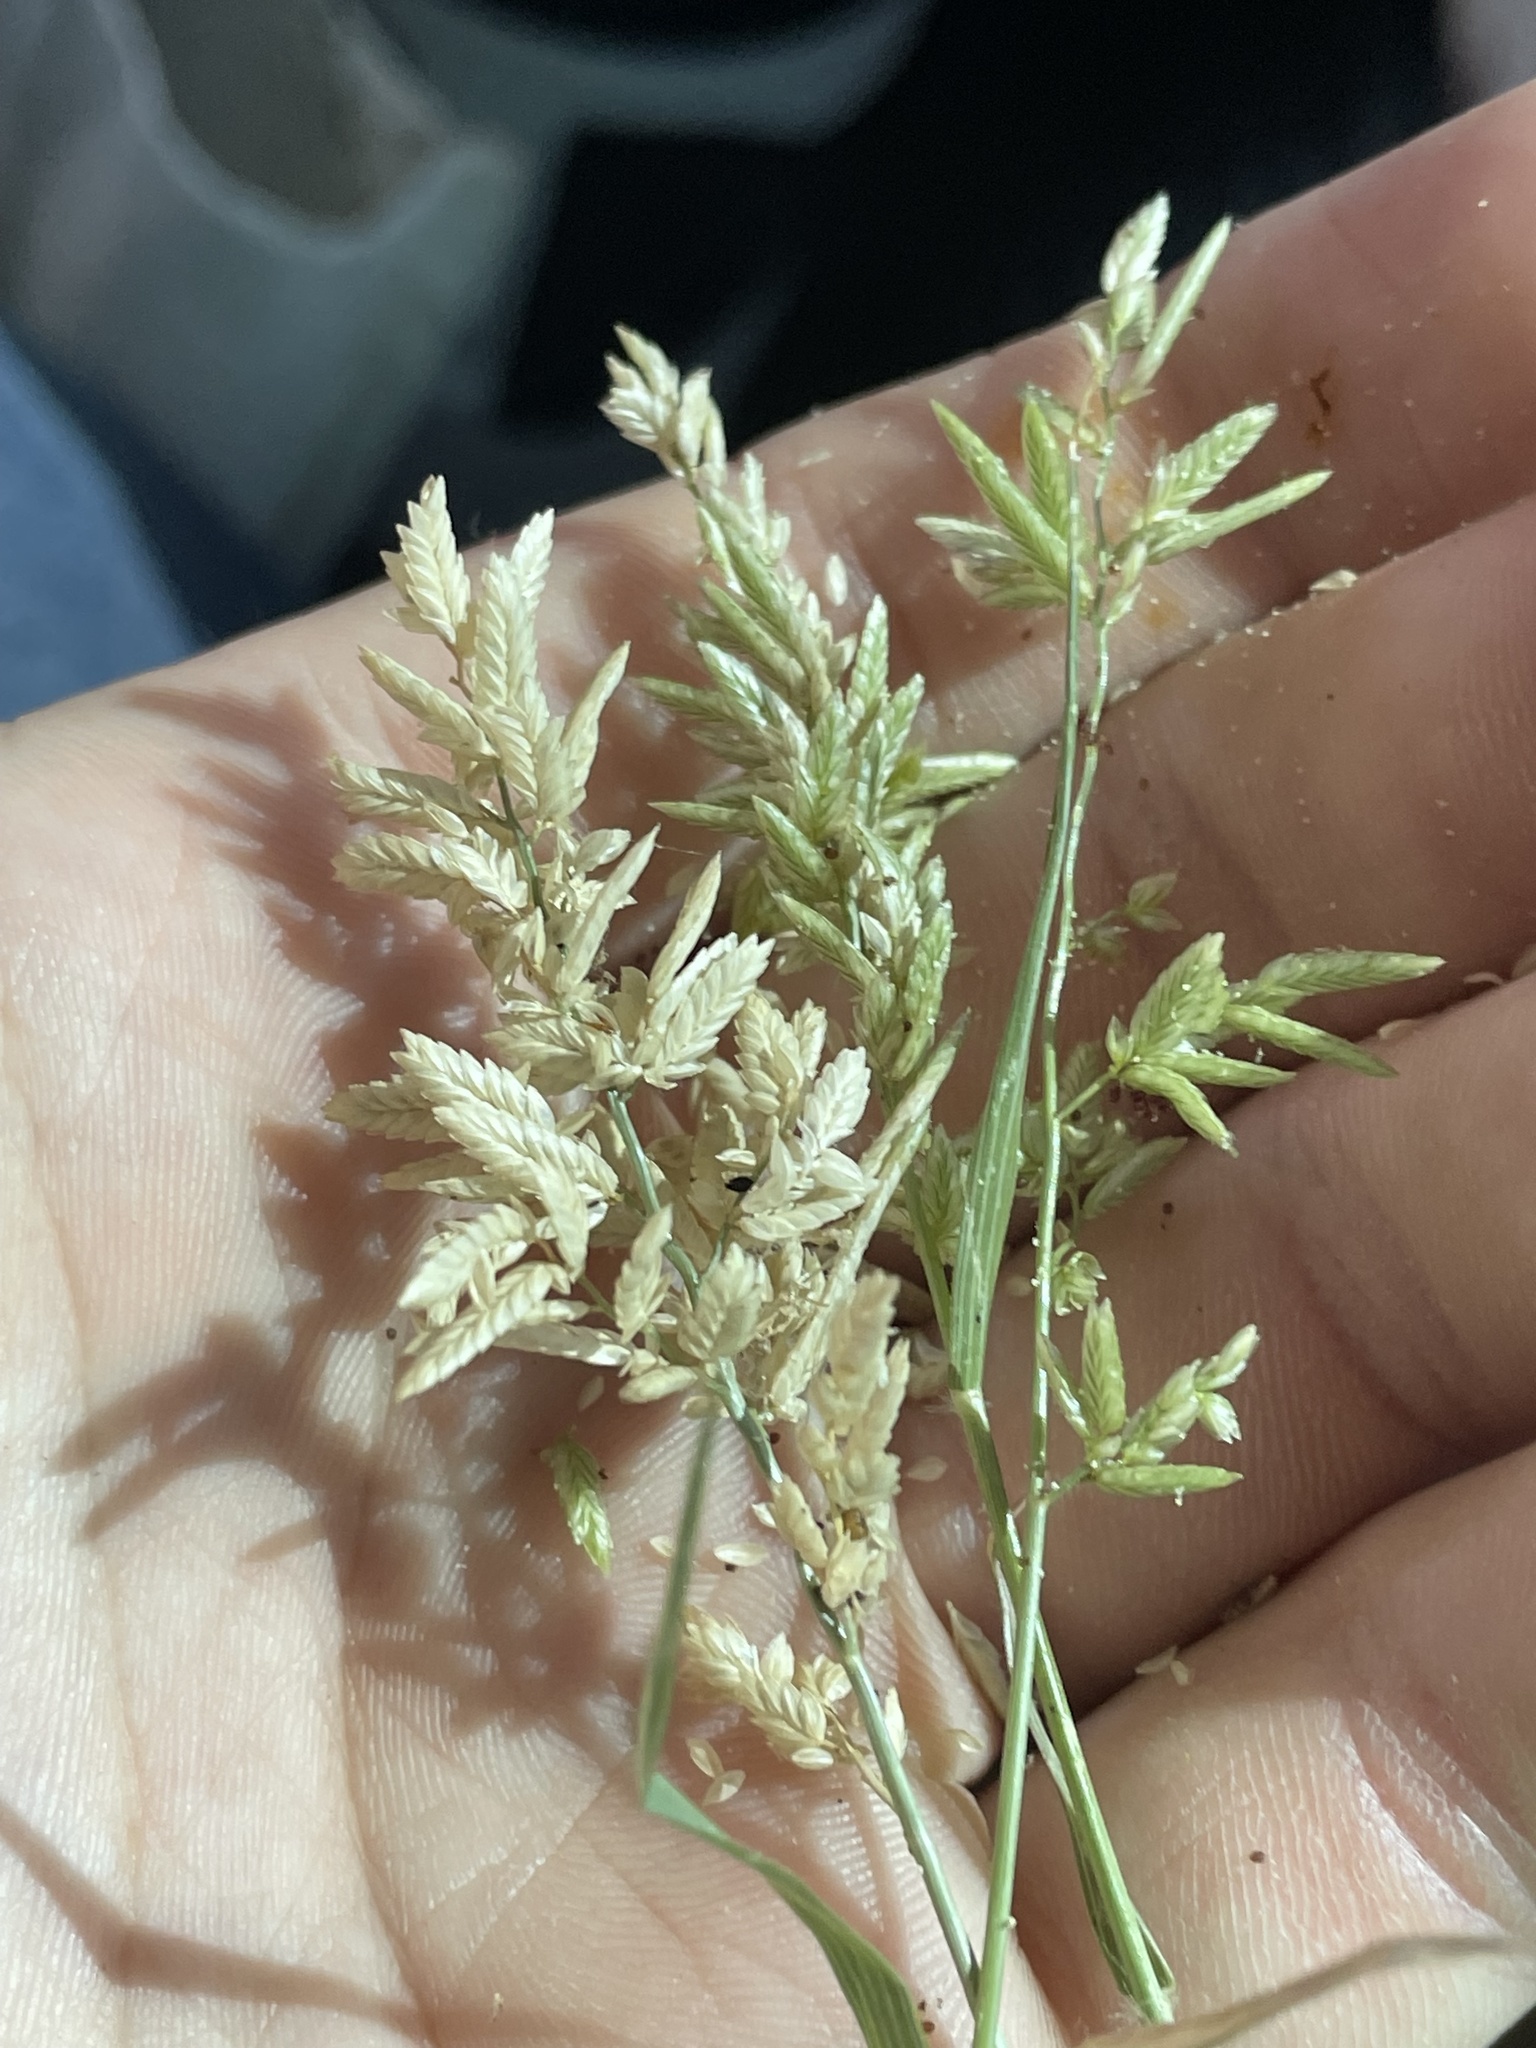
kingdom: Plantae
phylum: Tracheophyta
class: Liliopsida
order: Poales
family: Poaceae
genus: Eragrostis
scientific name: Eragrostis cilianensis
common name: Stinkgrass
